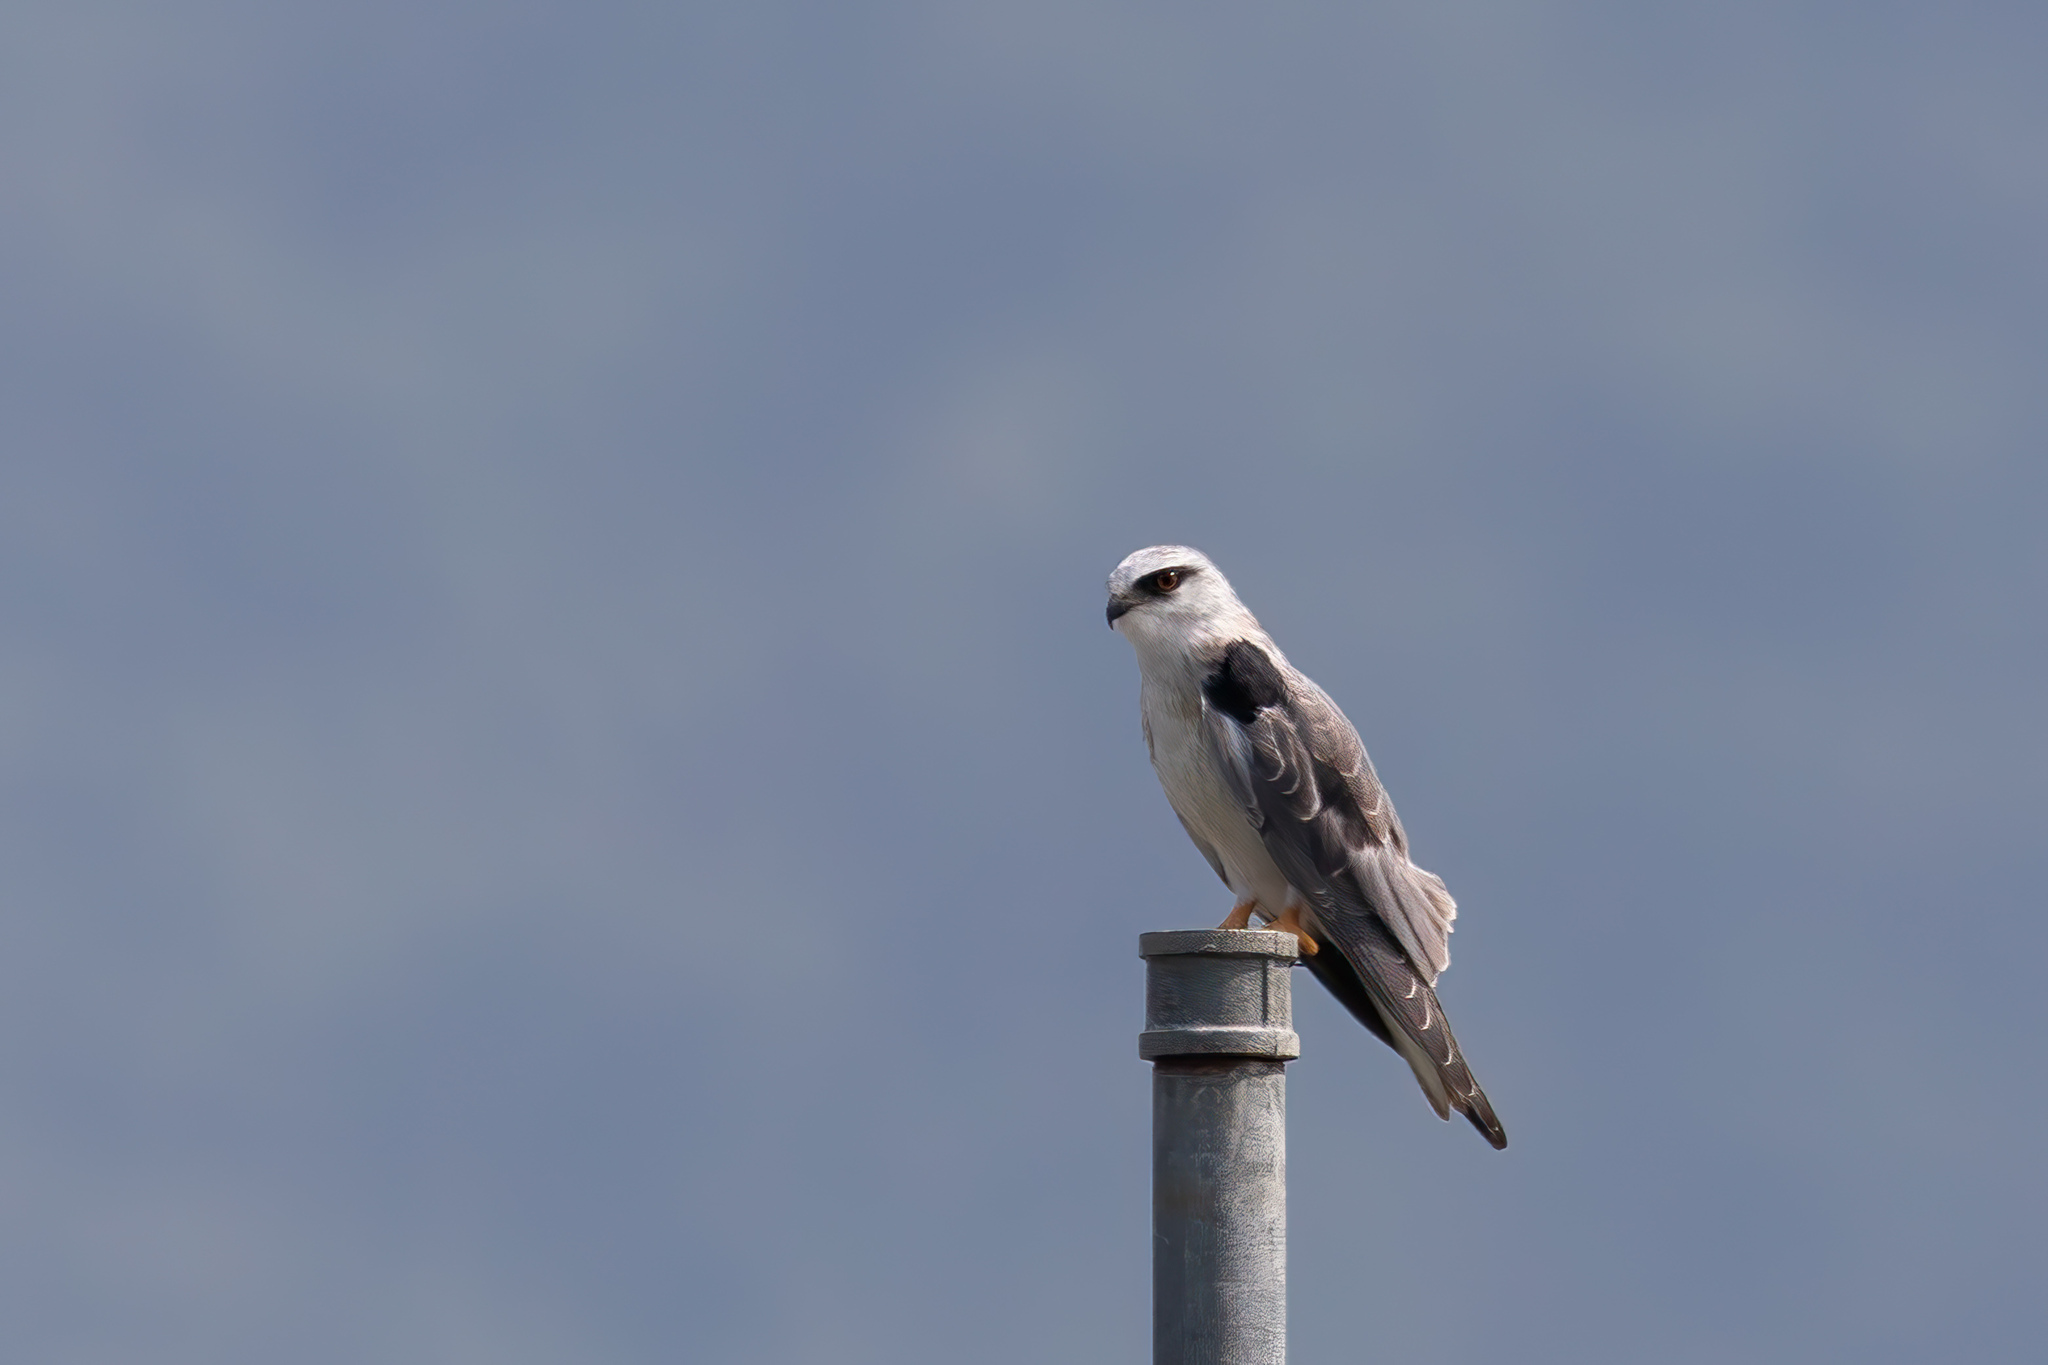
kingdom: Animalia
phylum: Chordata
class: Aves
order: Accipitriformes
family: Accipitridae
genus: Elanus
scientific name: Elanus caeruleus
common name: Black-winged kite
